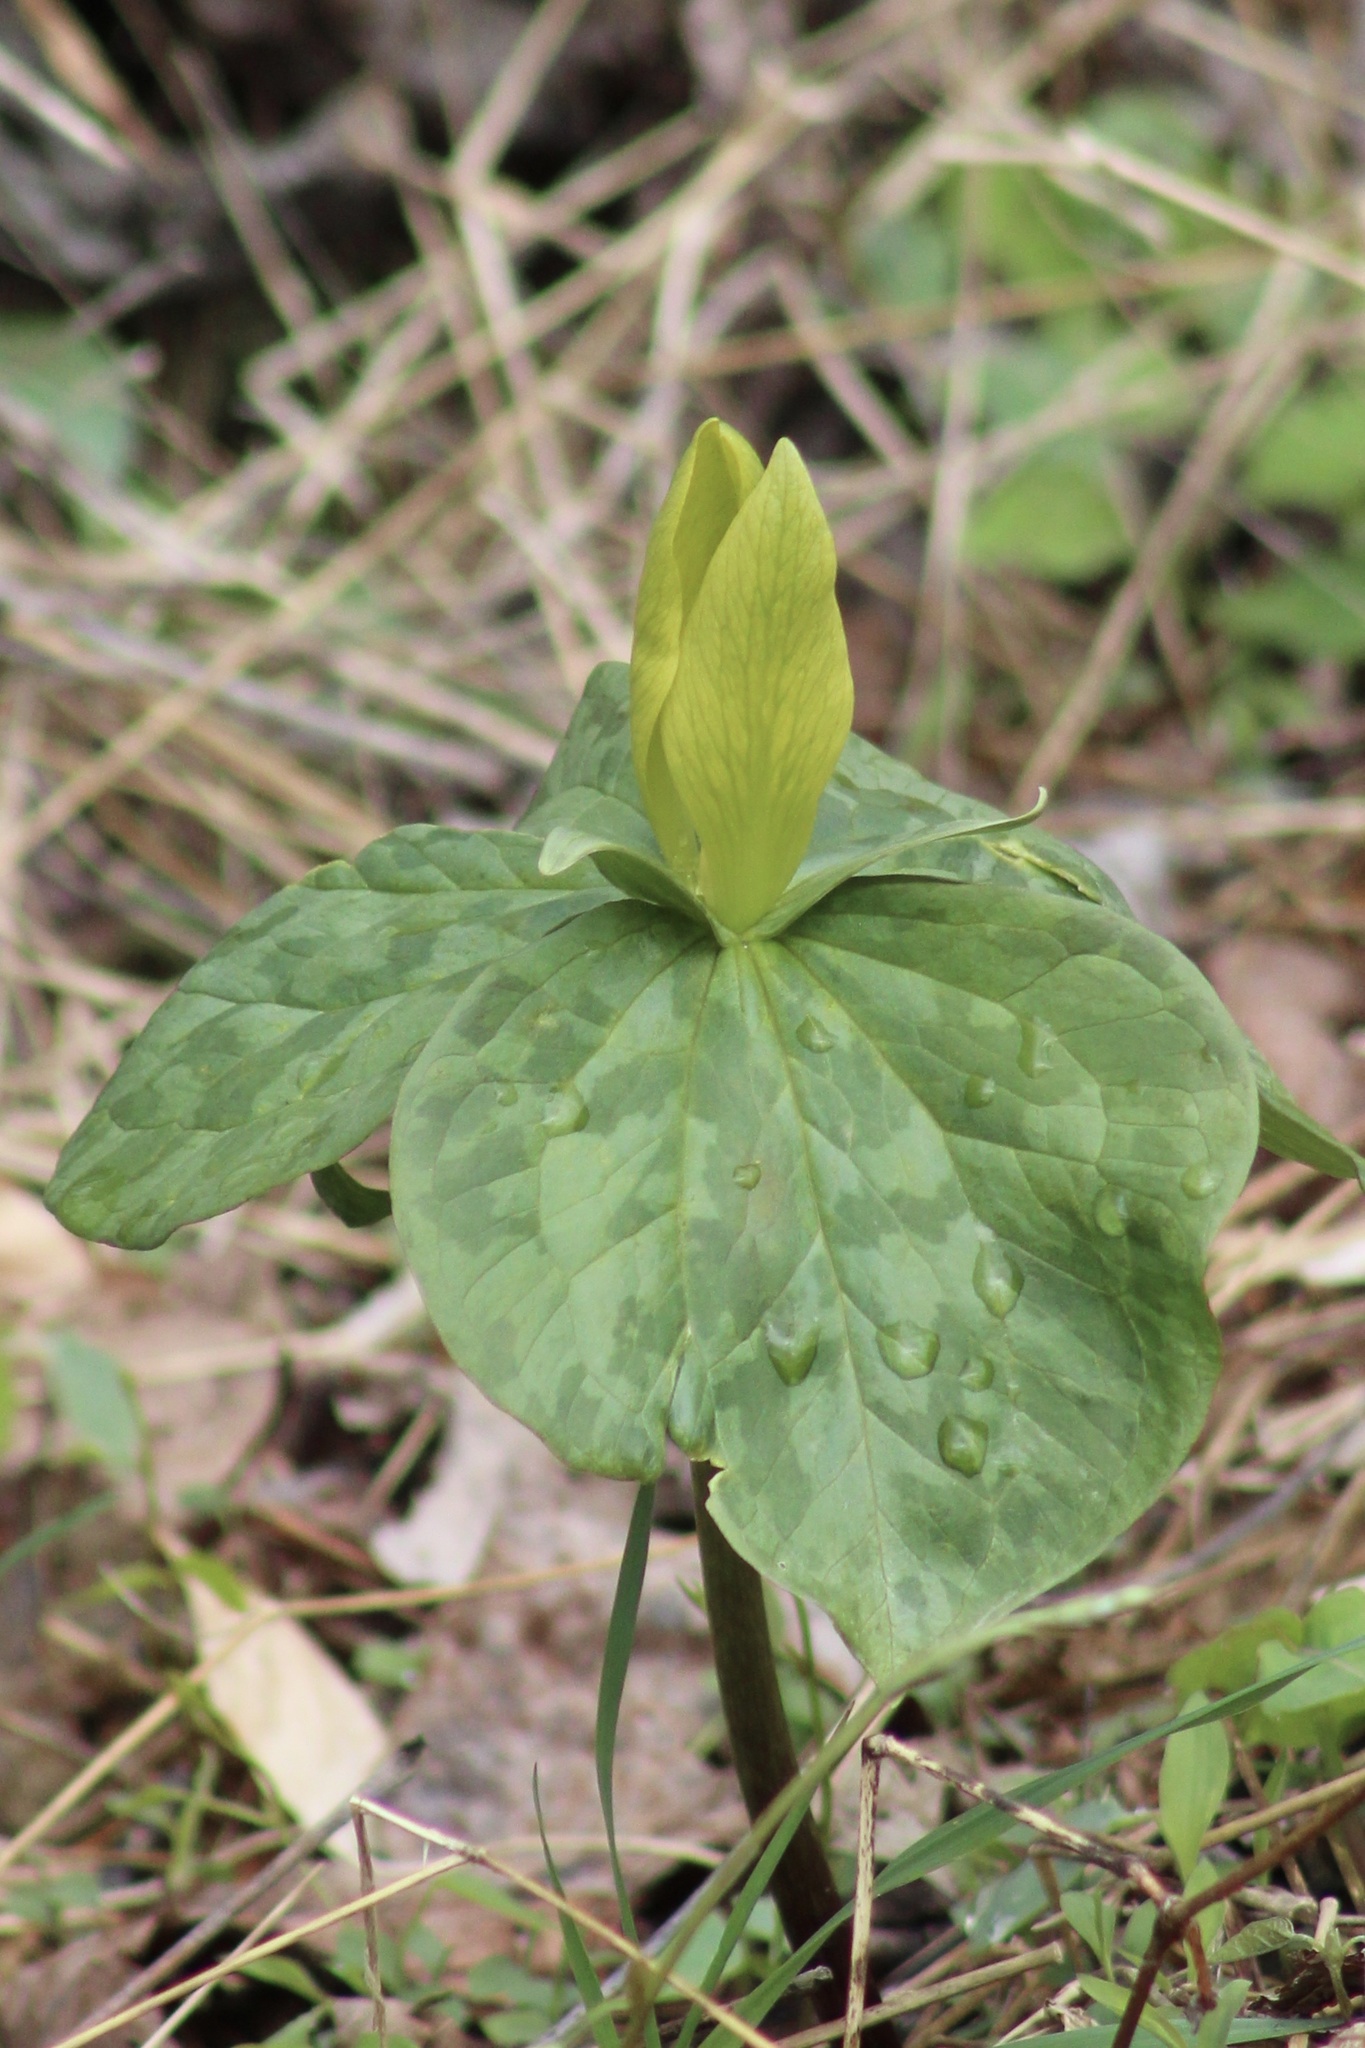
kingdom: Plantae
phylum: Tracheophyta
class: Liliopsida
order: Liliales
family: Melanthiaceae
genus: Trillium
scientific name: Trillium luteum
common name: Wax trillium
